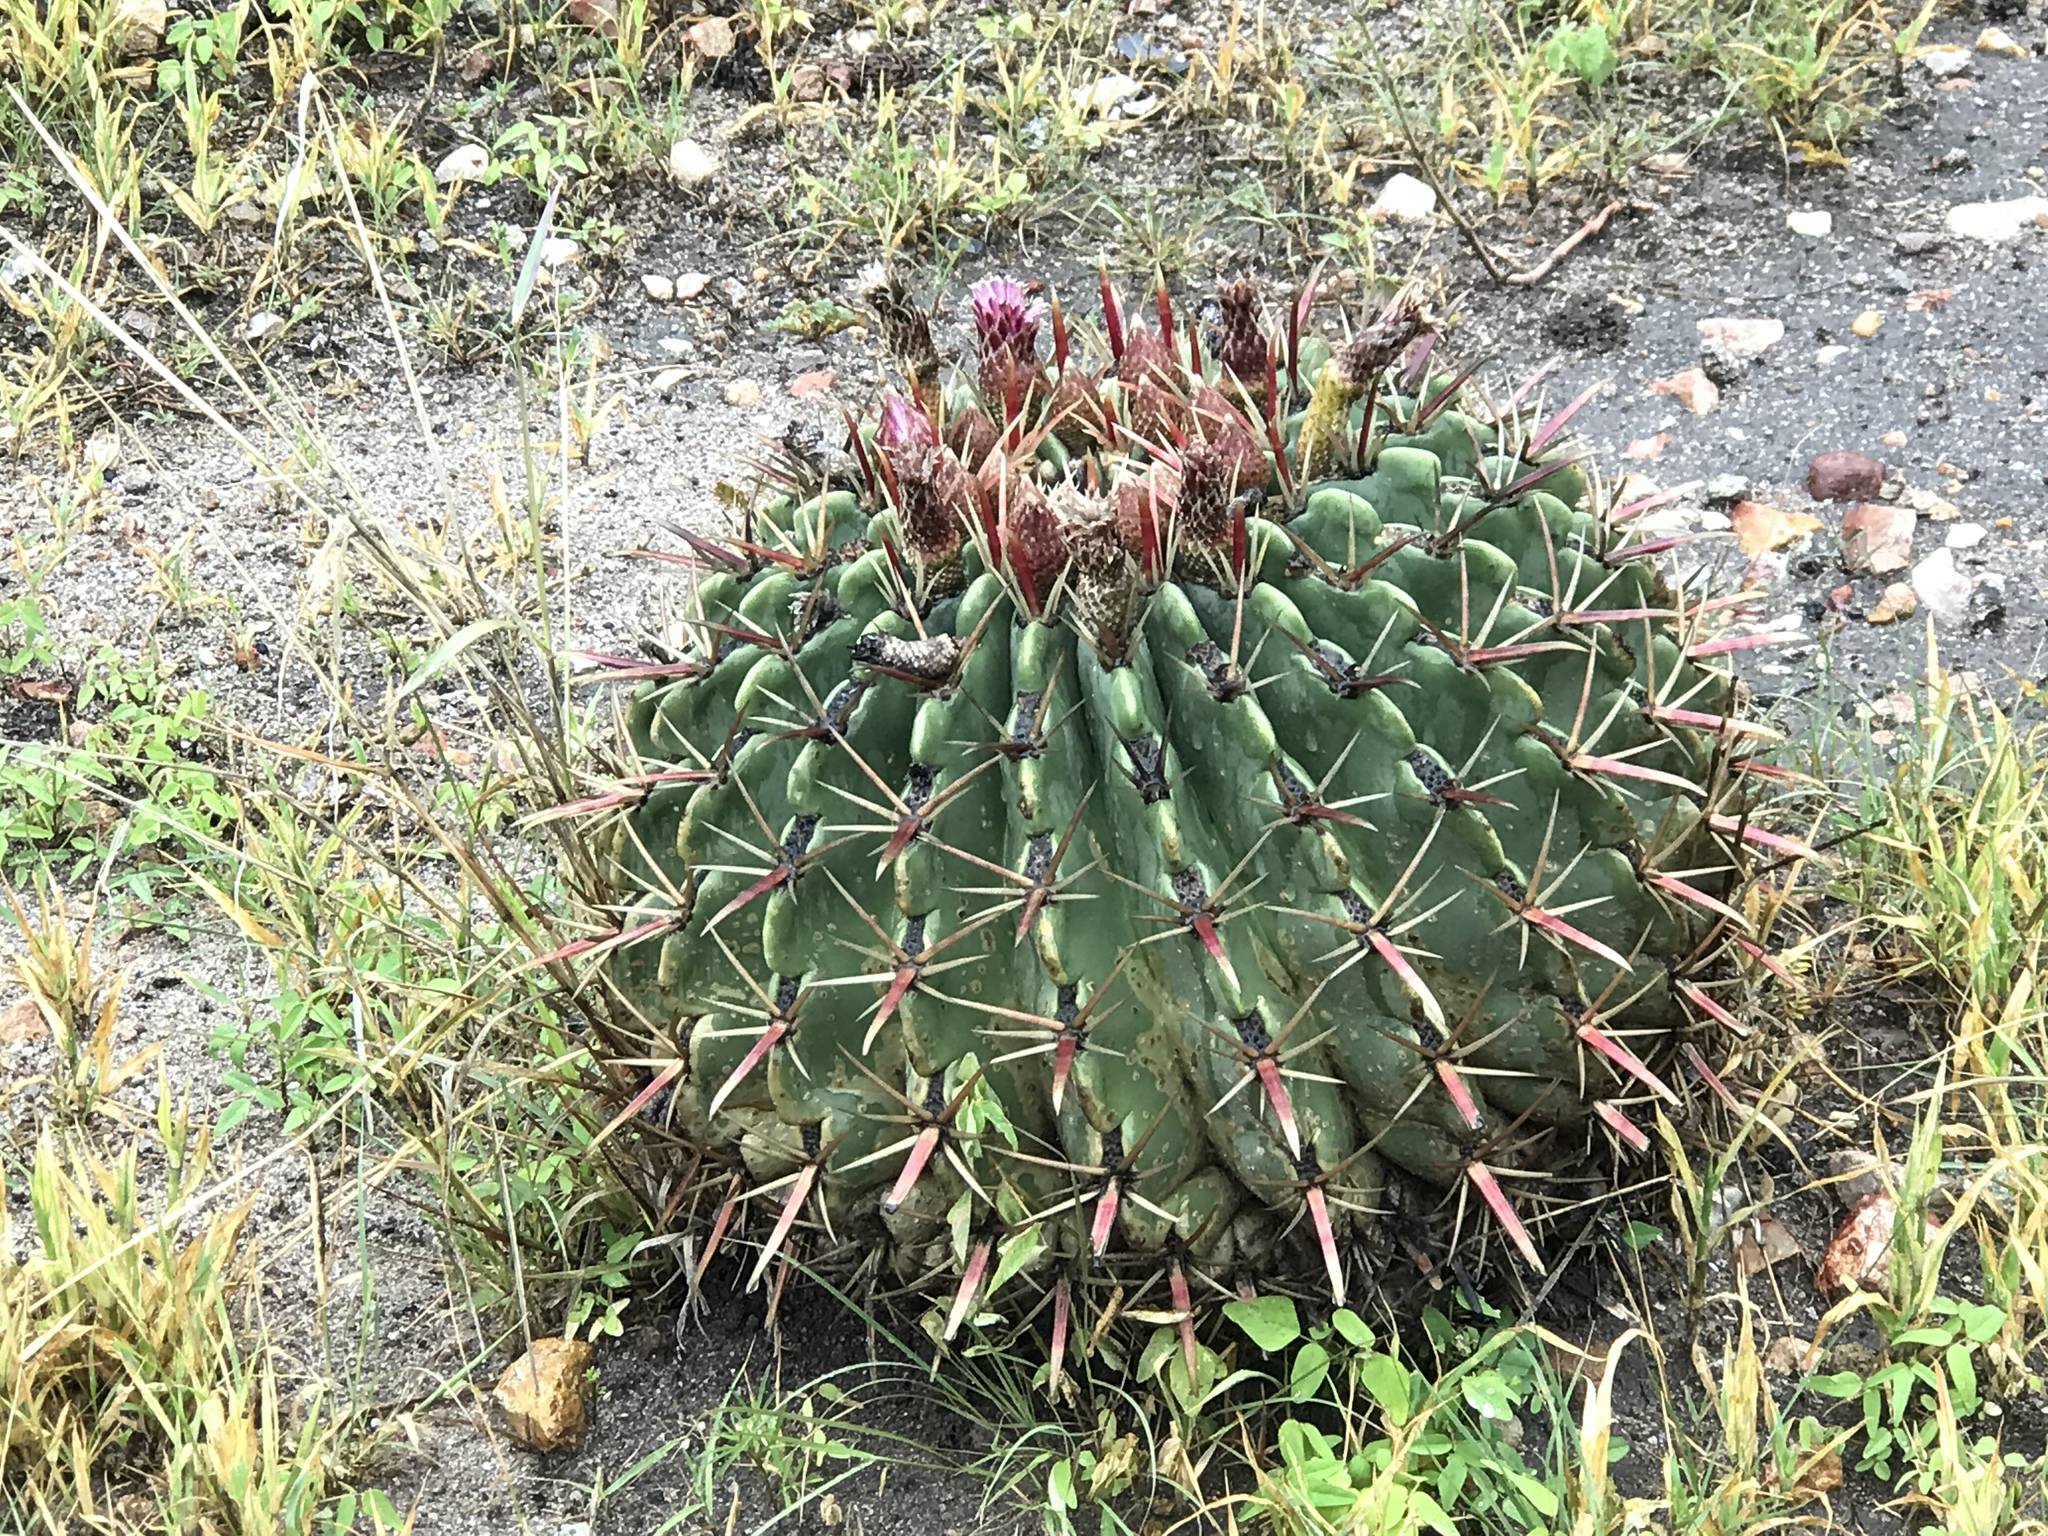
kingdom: Plantae
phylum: Tracheophyta
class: Magnoliopsida
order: Caryophyllales
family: Cactaceae
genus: Ferocactus
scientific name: Ferocactus latispinus
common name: Devil's-tongue cactus
